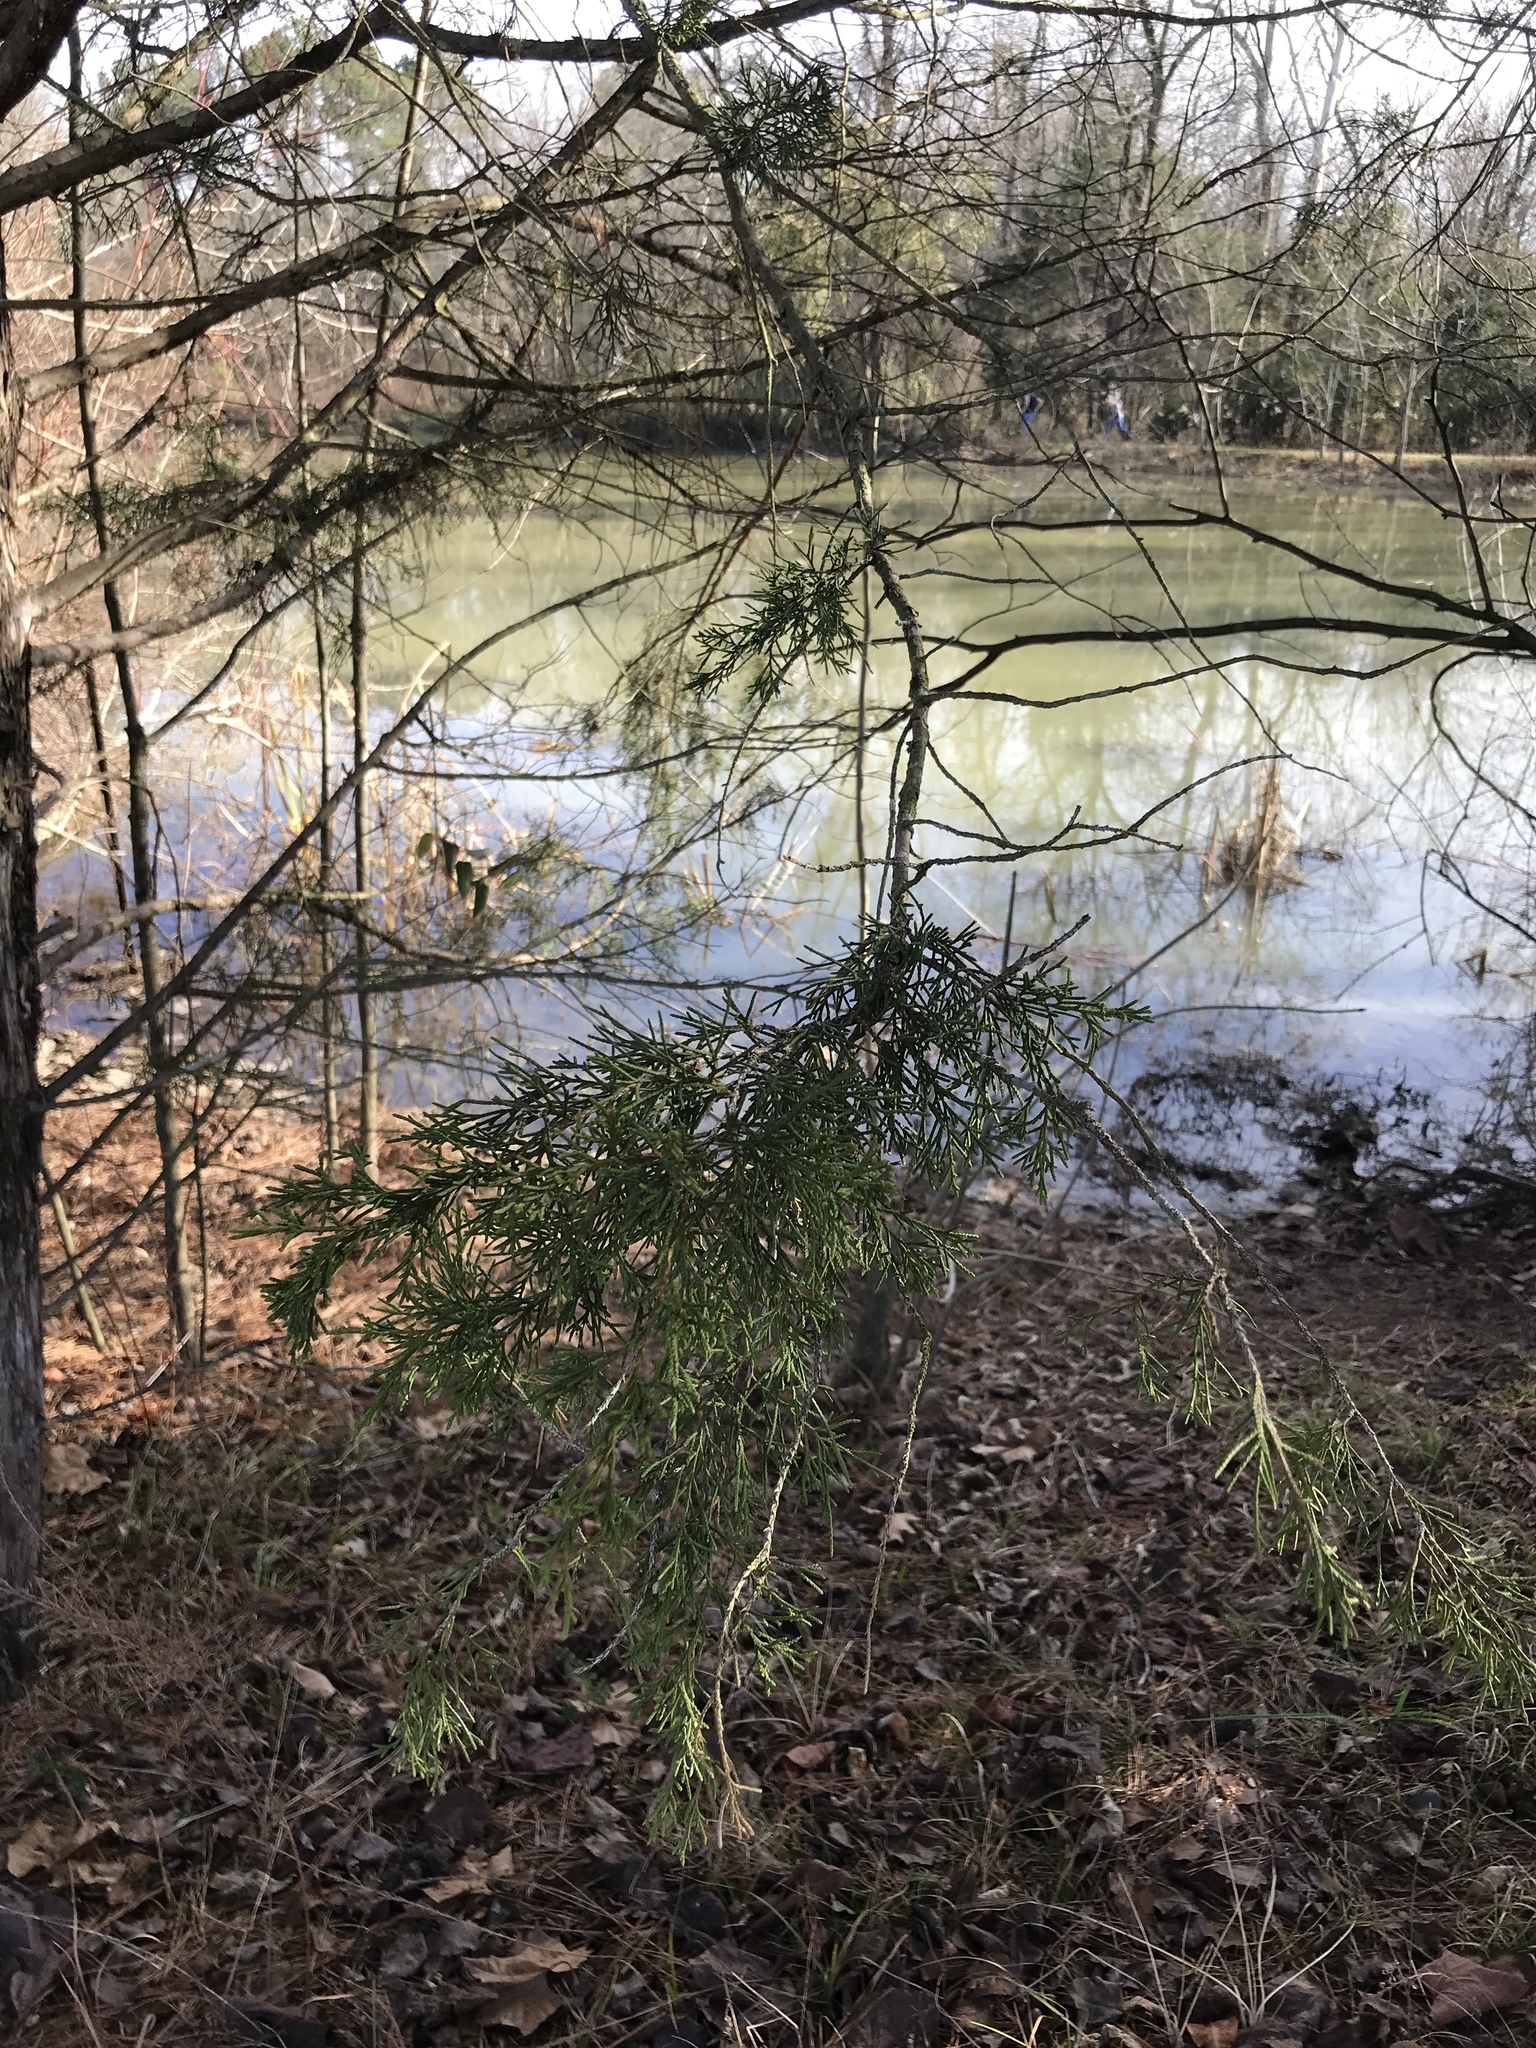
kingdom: Plantae
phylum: Tracheophyta
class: Pinopsida
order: Pinales
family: Cupressaceae
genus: Juniperus
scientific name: Juniperus virginiana
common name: Red juniper
